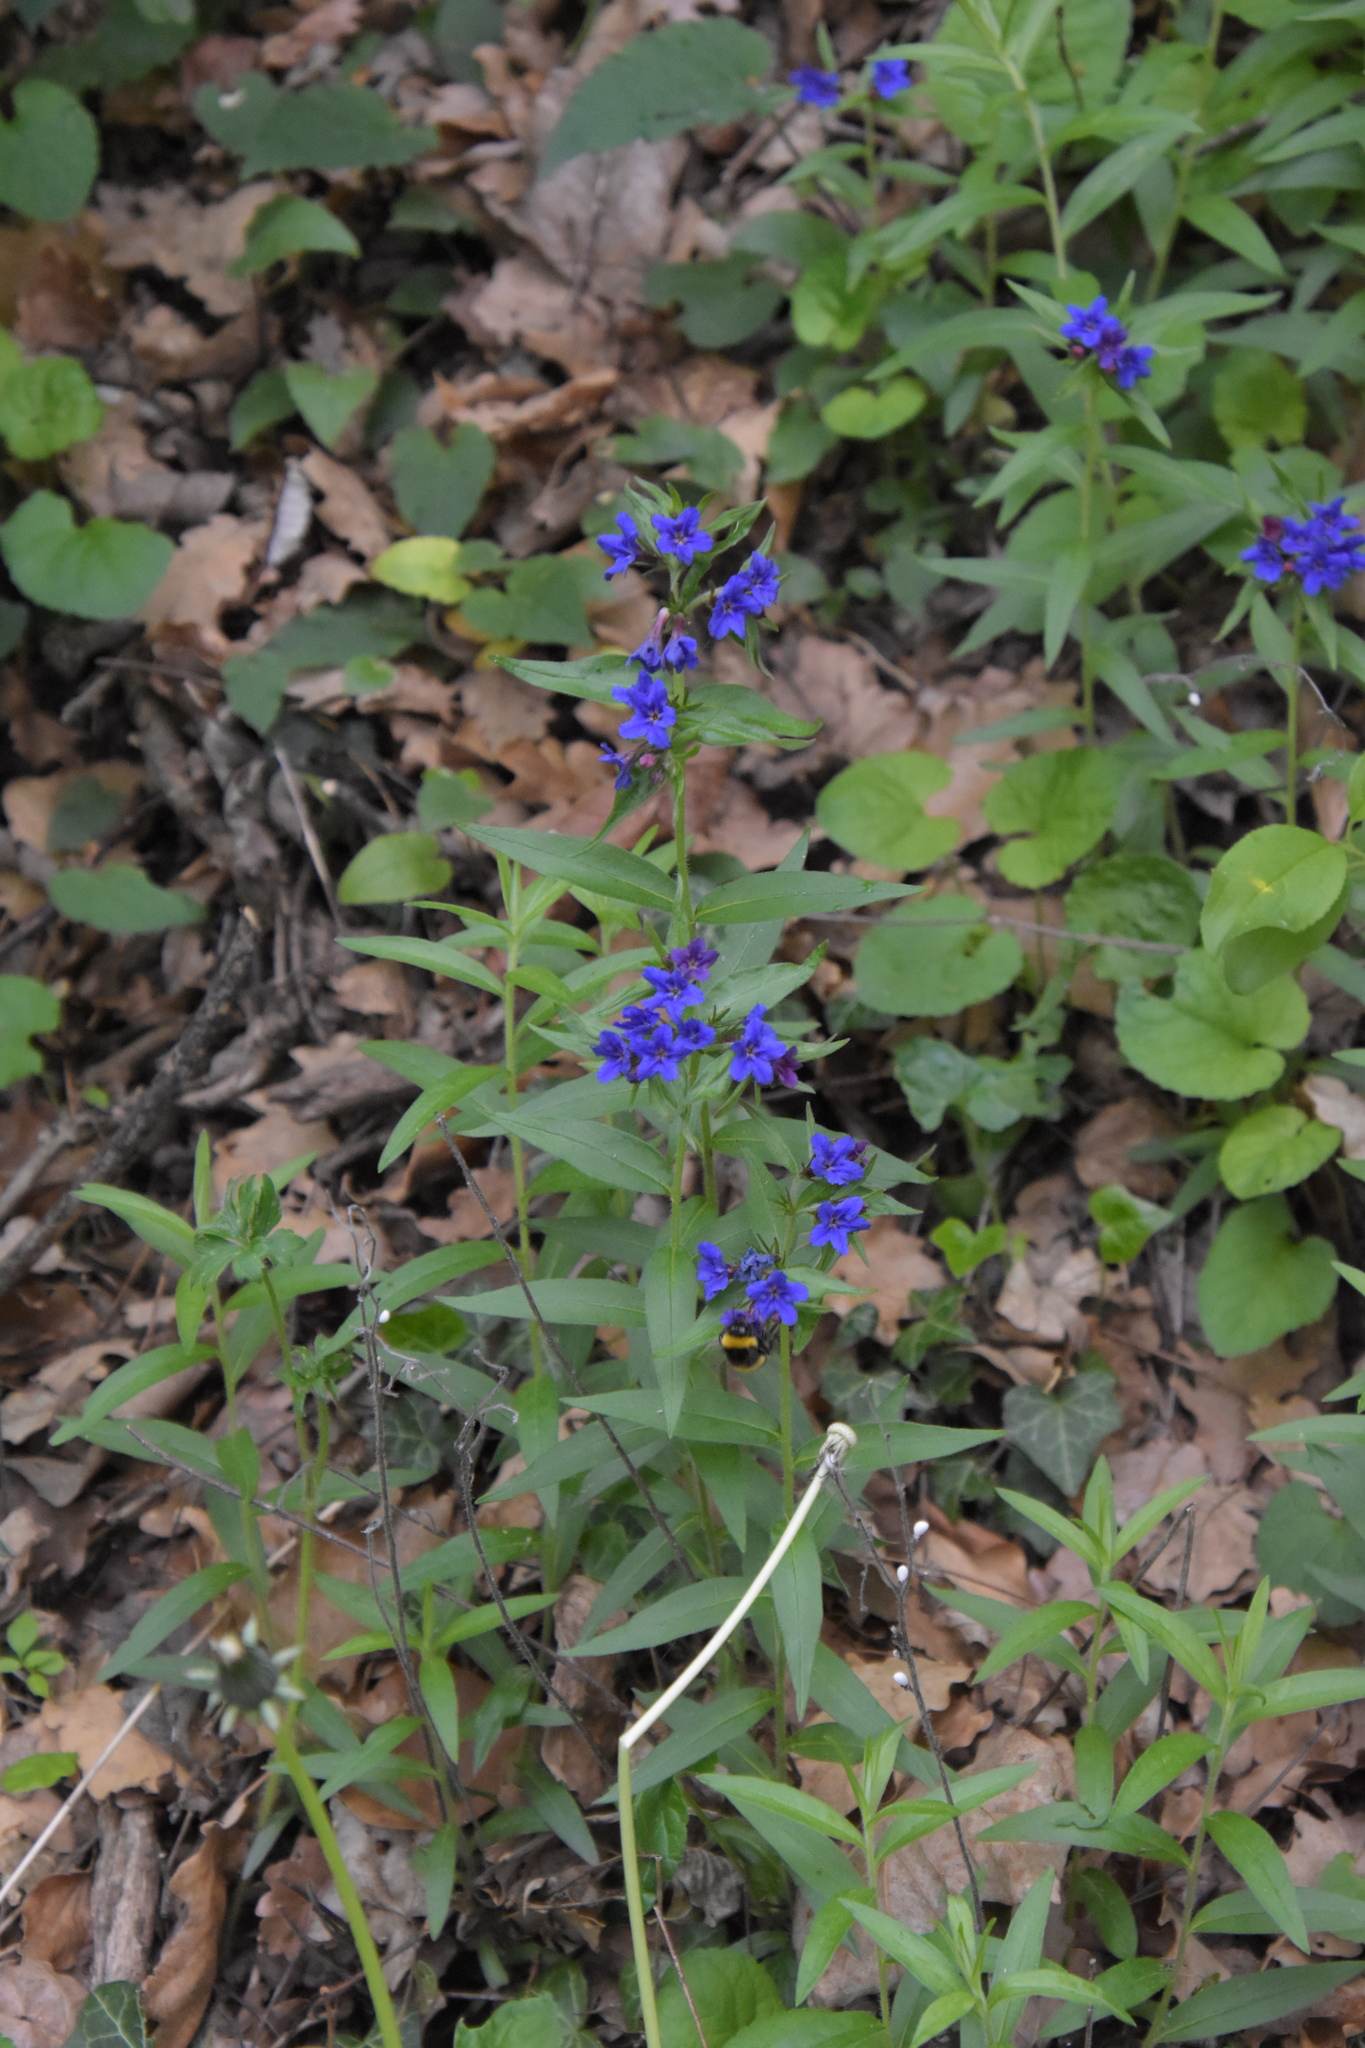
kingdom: Plantae
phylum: Tracheophyta
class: Magnoliopsida
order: Boraginales
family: Boraginaceae
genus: Aegonychon
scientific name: Aegonychon purpurocaeruleum
